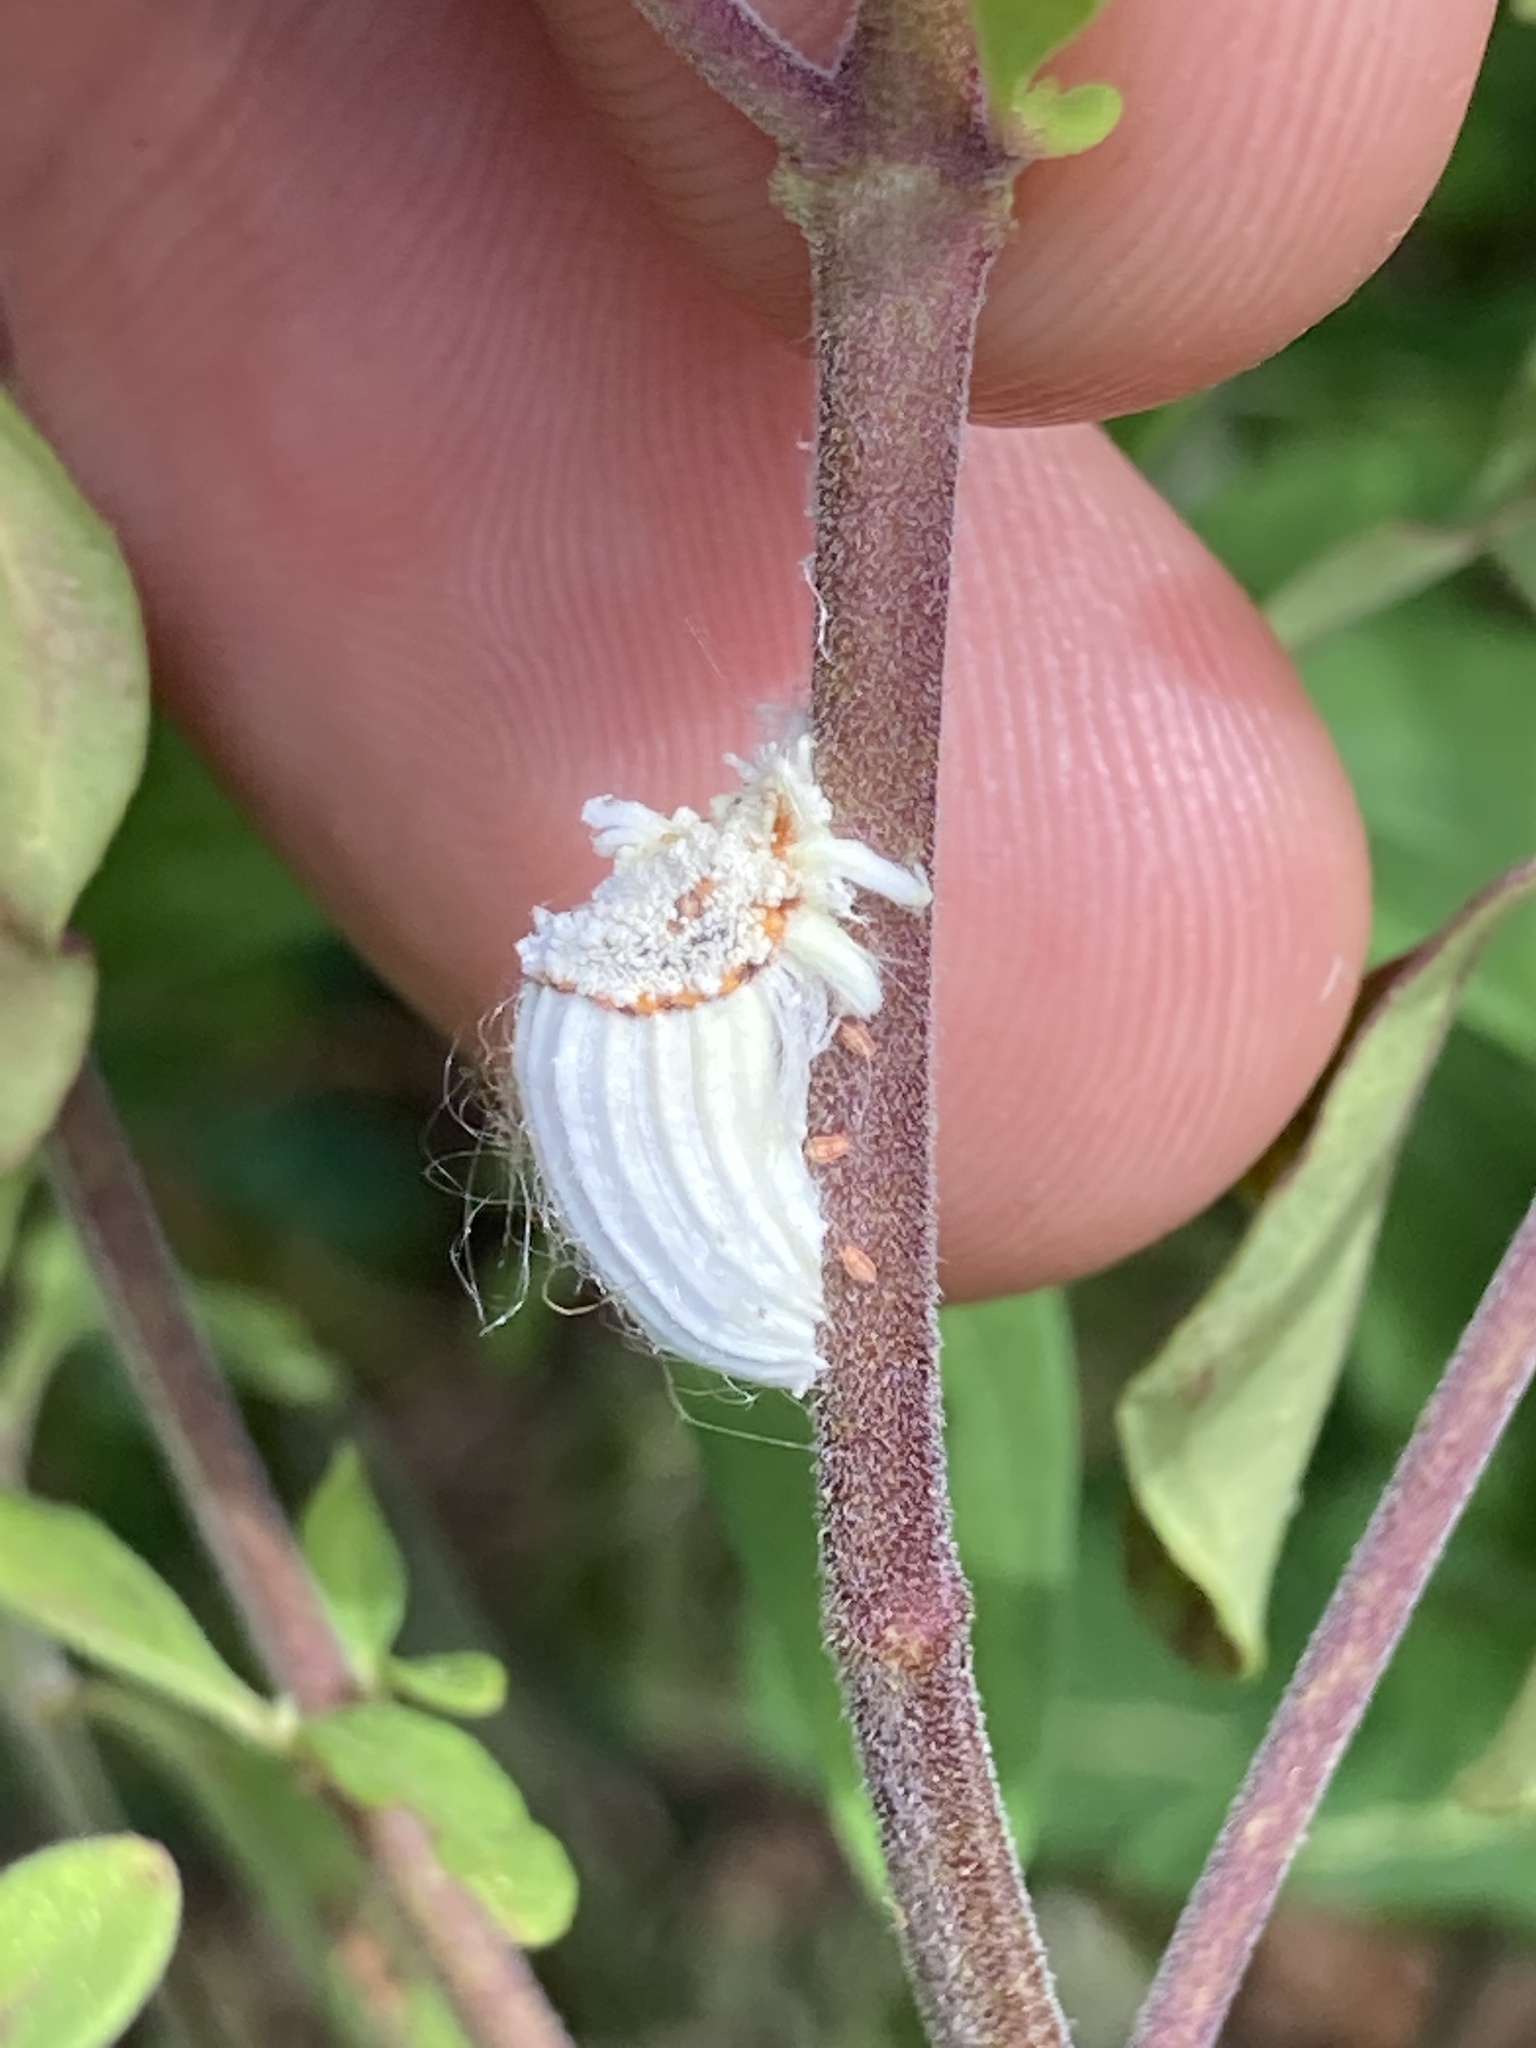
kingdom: Animalia
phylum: Arthropoda
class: Insecta
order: Hemiptera
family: Margarodidae
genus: Icerya
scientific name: Icerya purchasi
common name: Cottony cushion scale
